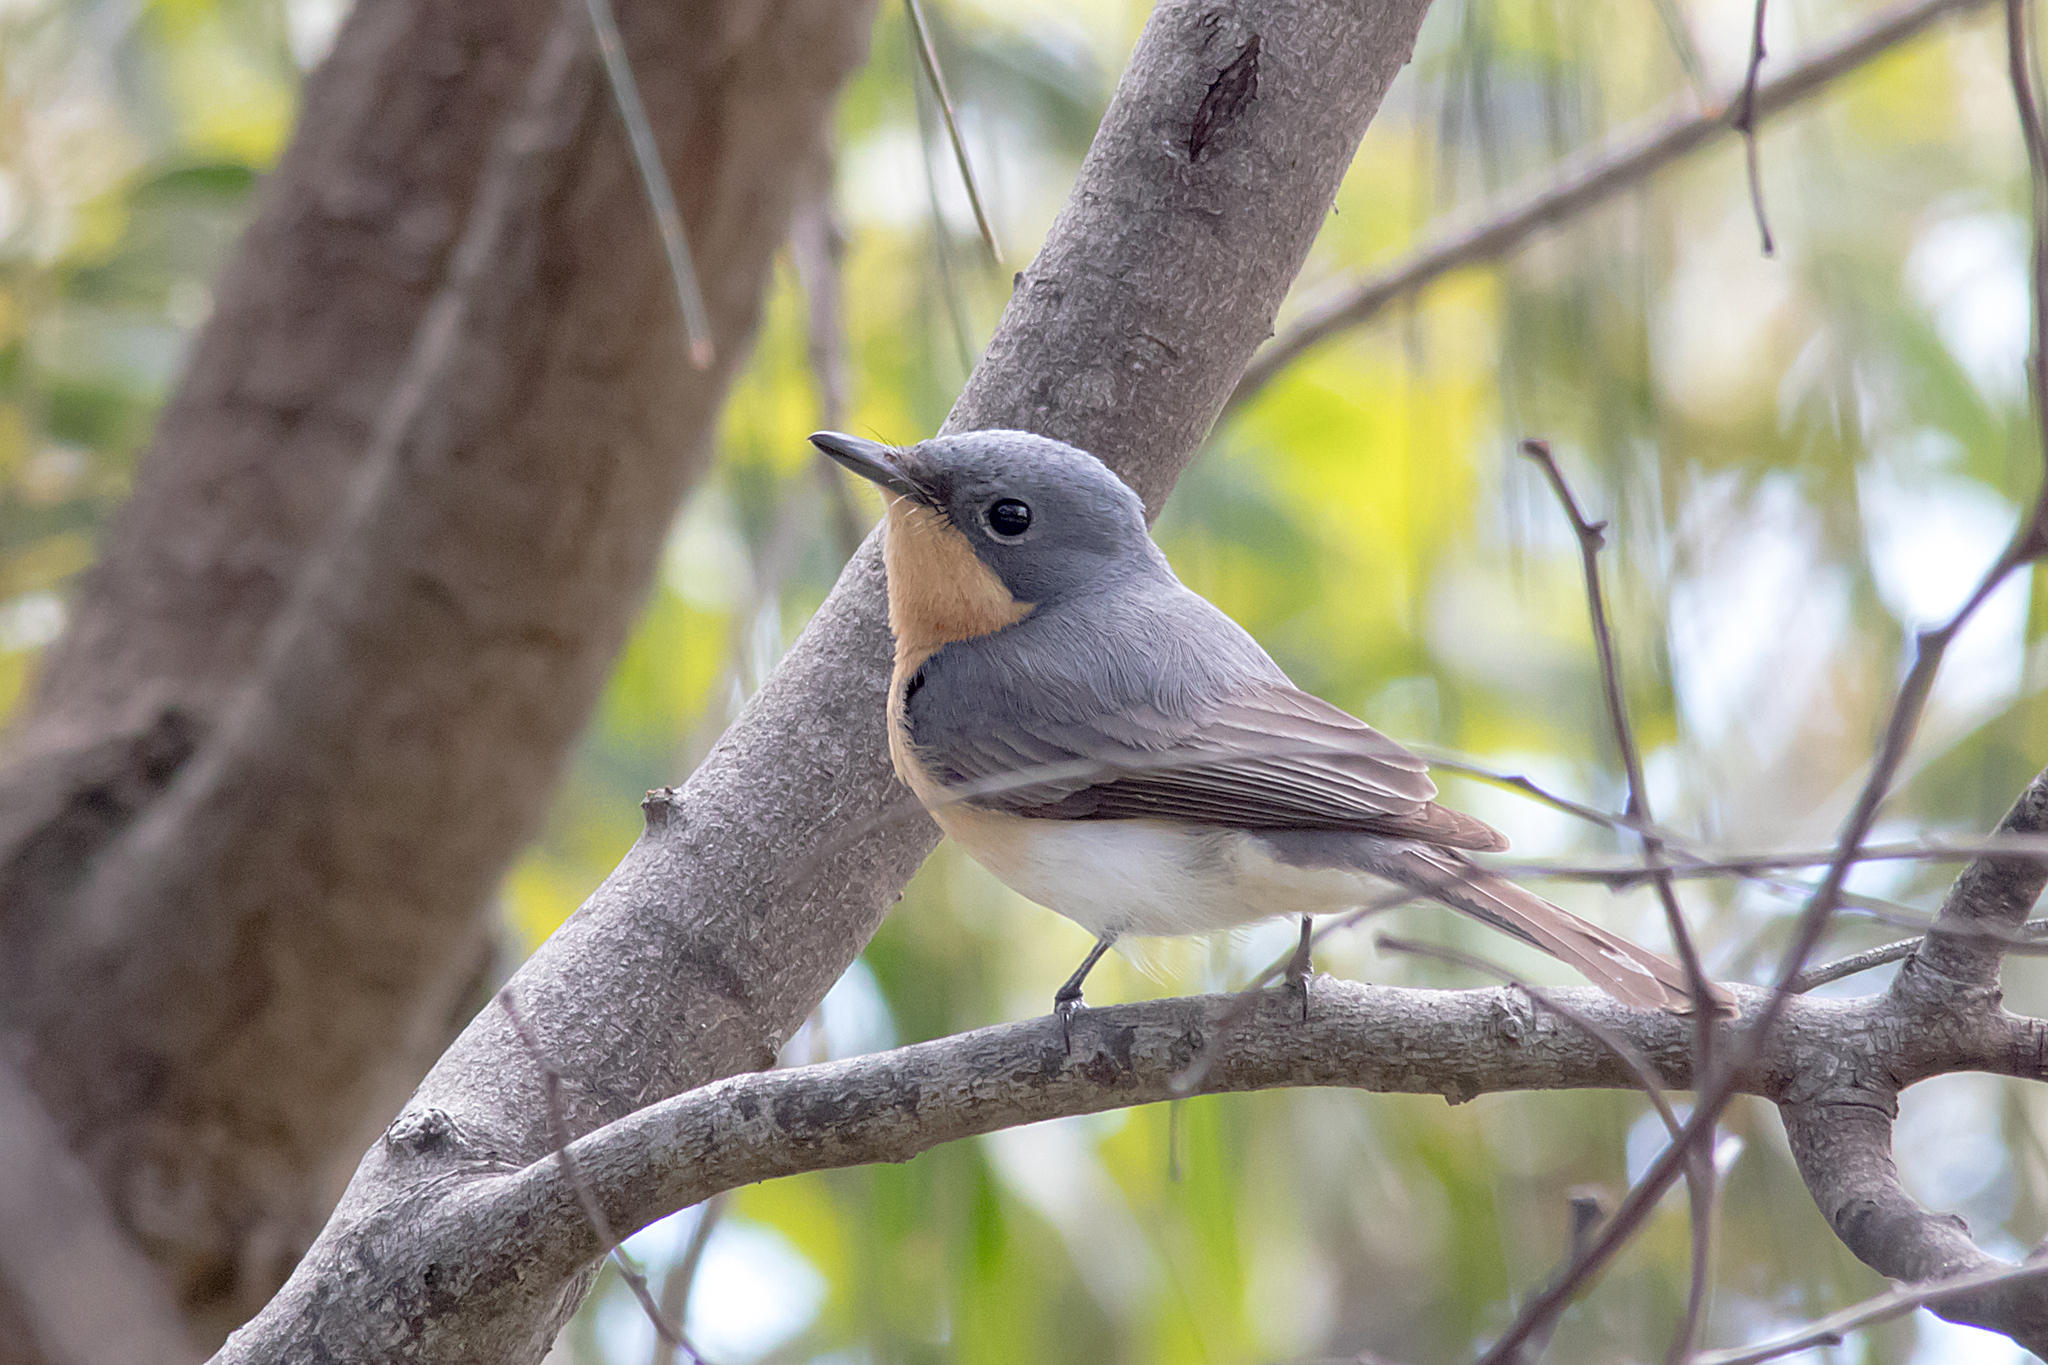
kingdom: Animalia
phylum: Chordata
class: Aves
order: Passeriformes
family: Monarchidae
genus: Myiagra
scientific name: Myiagra rubecula
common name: Leaden flycatcher
